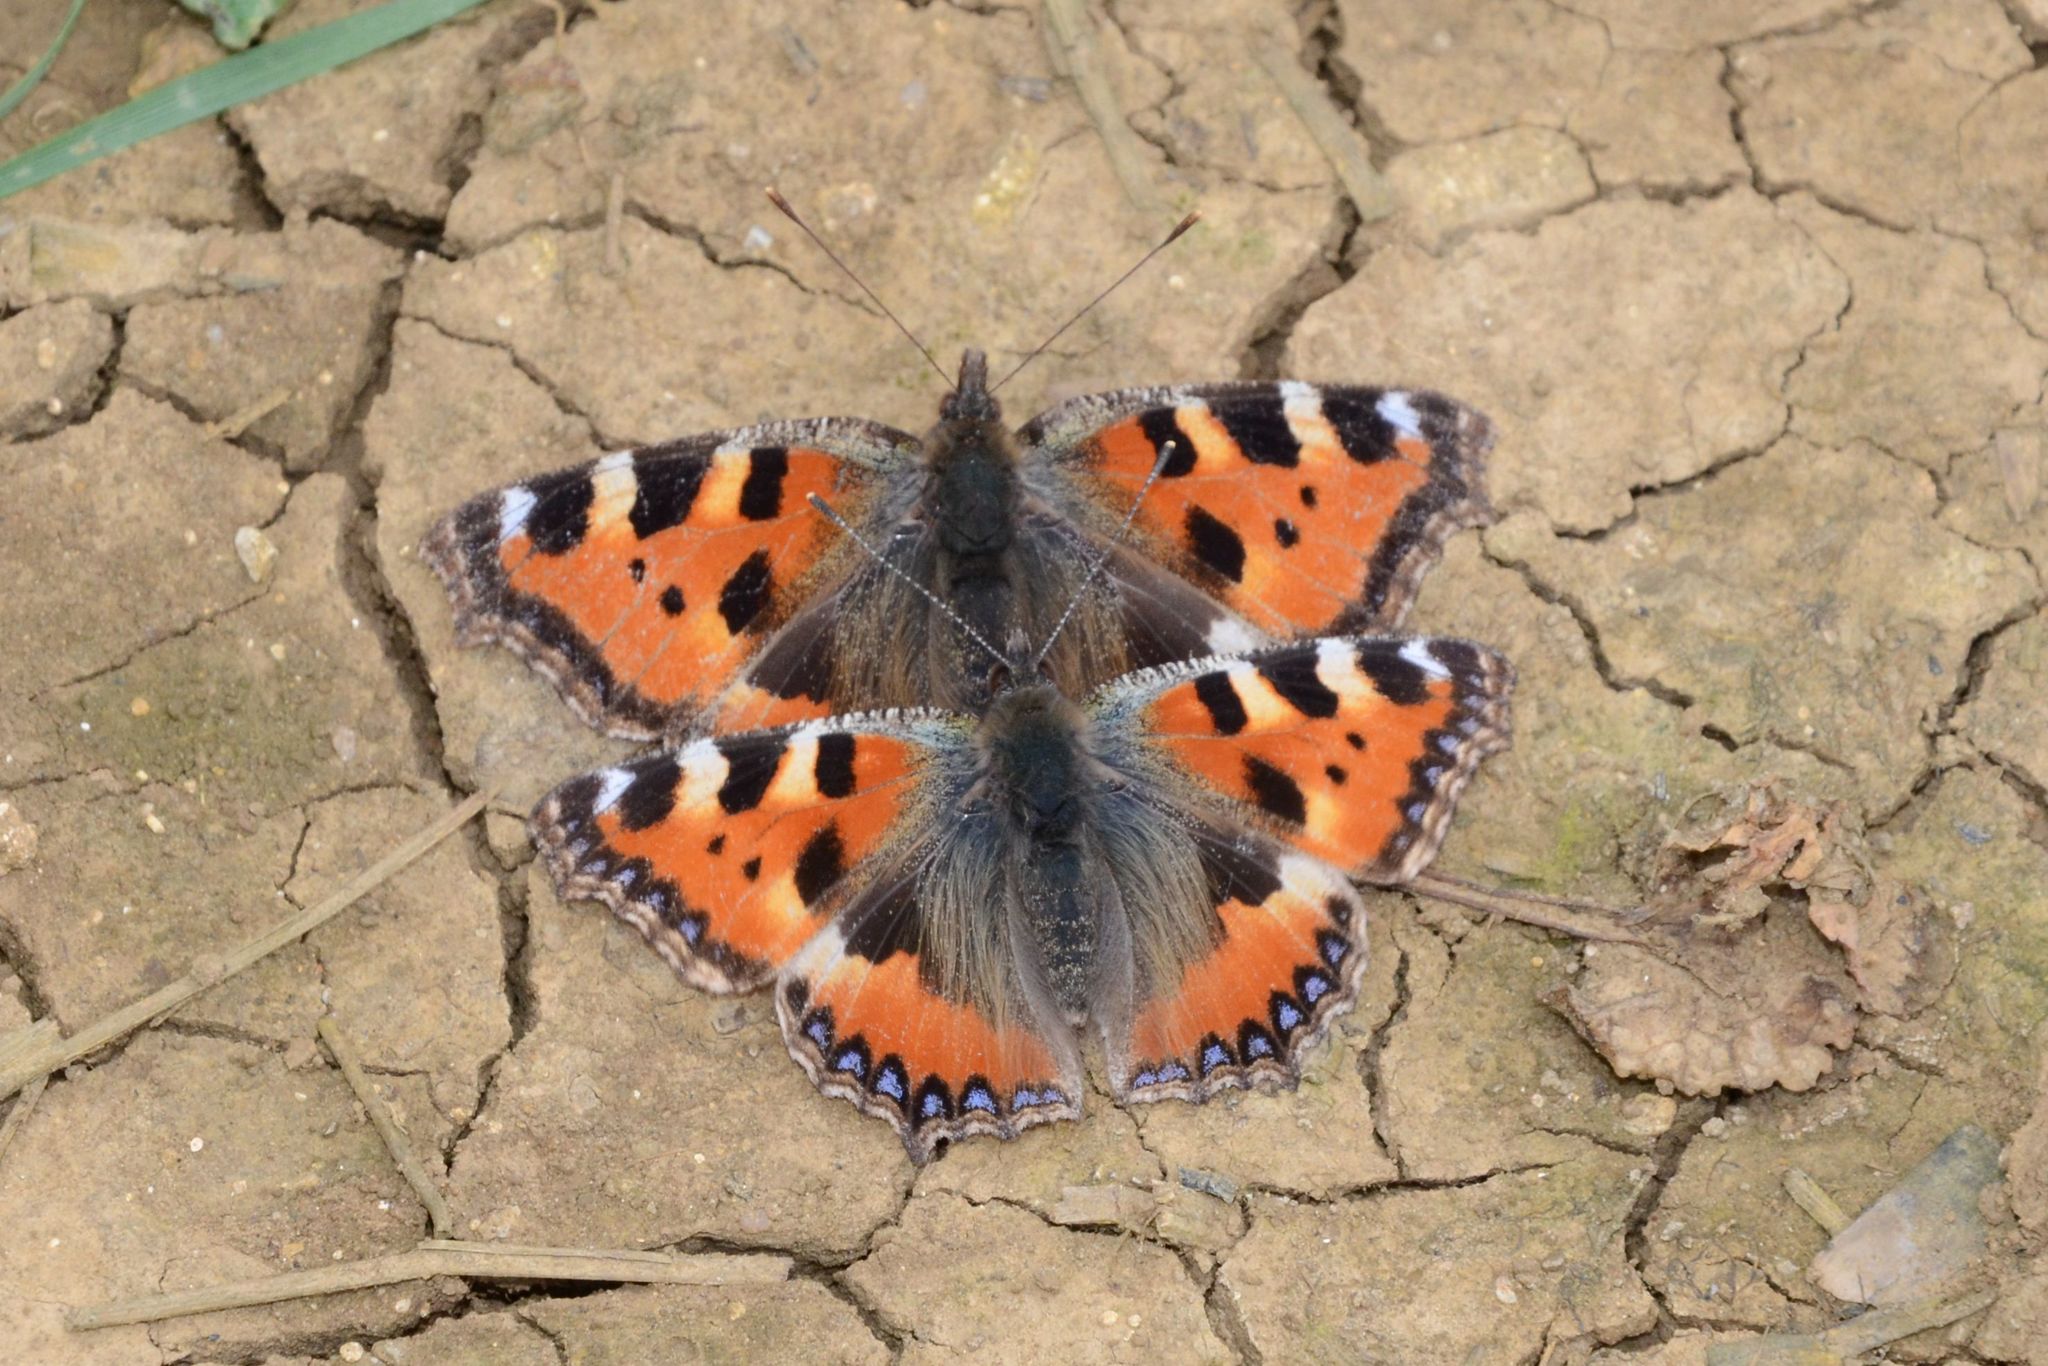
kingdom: Animalia
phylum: Arthropoda
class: Insecta
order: Lepidoptera
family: Nymphalidae
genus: Aglais
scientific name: Aglais urticae
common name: Small tortoiseshell
